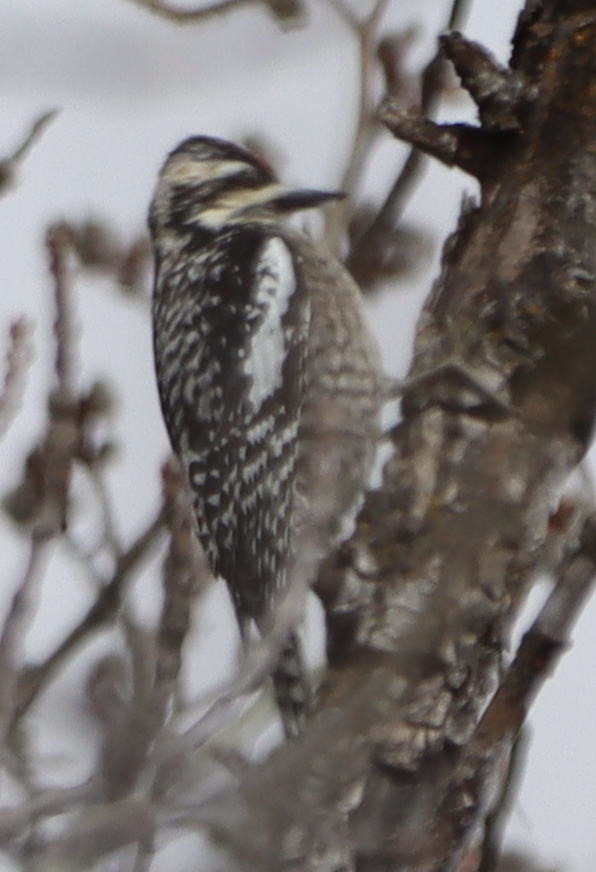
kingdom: Animalia
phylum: Chordata
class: Aves
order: Piciformes
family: Picidae
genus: Sphyrapicus
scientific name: Sphyrapicus varius
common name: Yellow-bellied sapsucker
